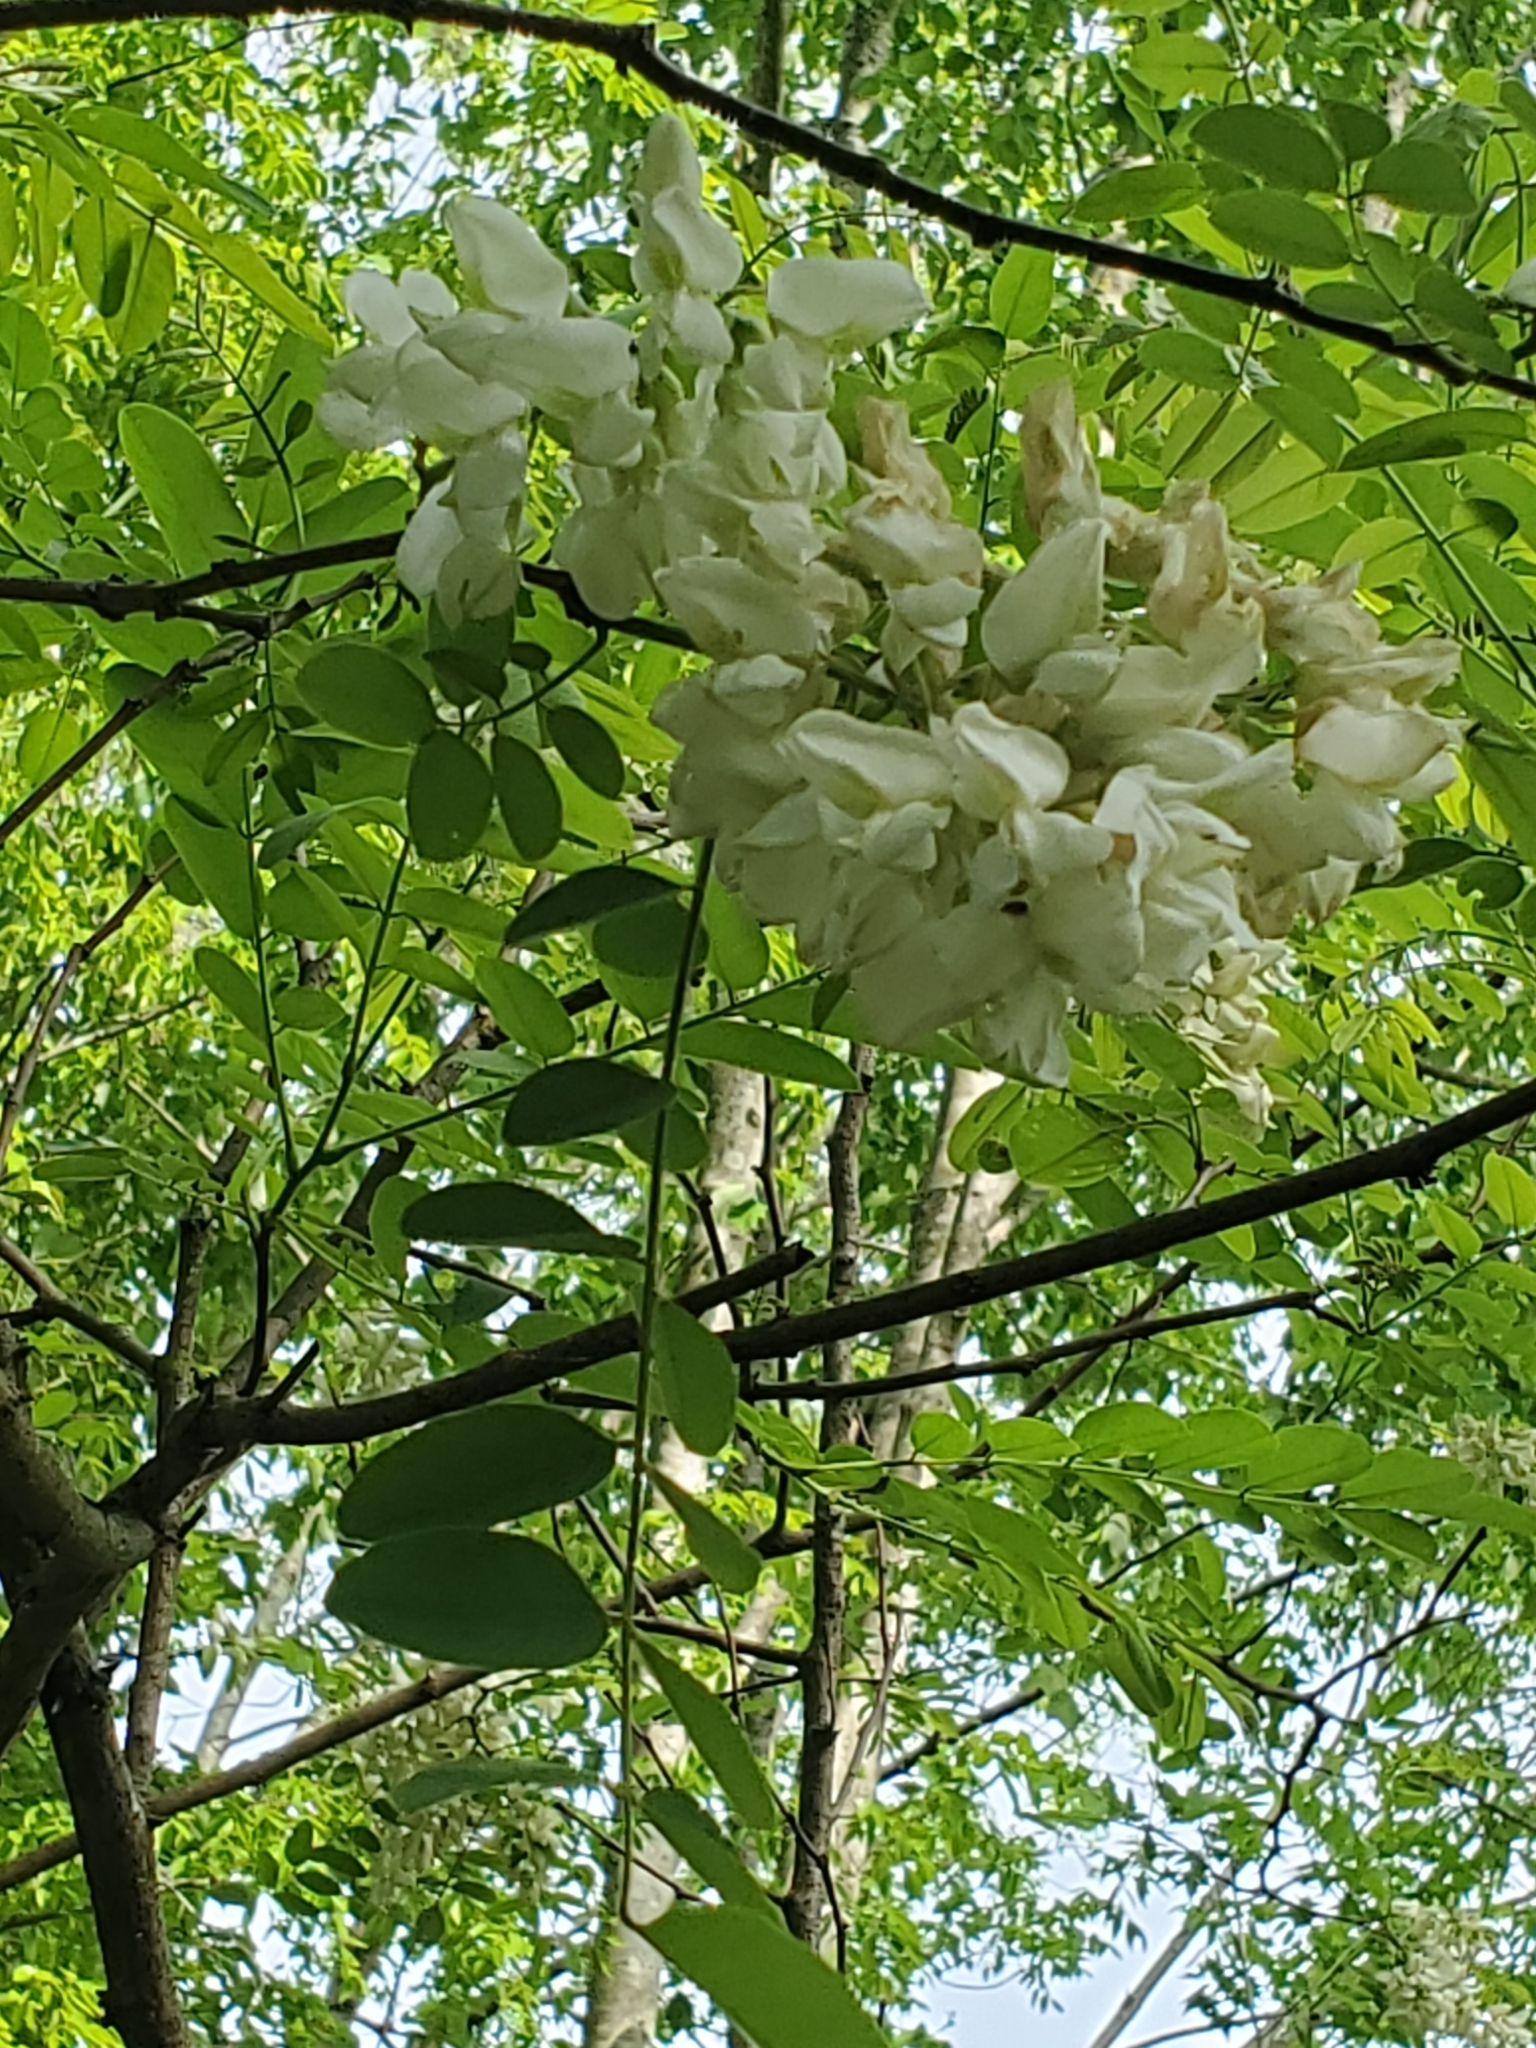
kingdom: Plantae
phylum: Tracheophyta
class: Magnoliopsida
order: Fabales
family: Fabaceae
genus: Robinia
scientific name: Robinia pseudoacacia
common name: Black locust
